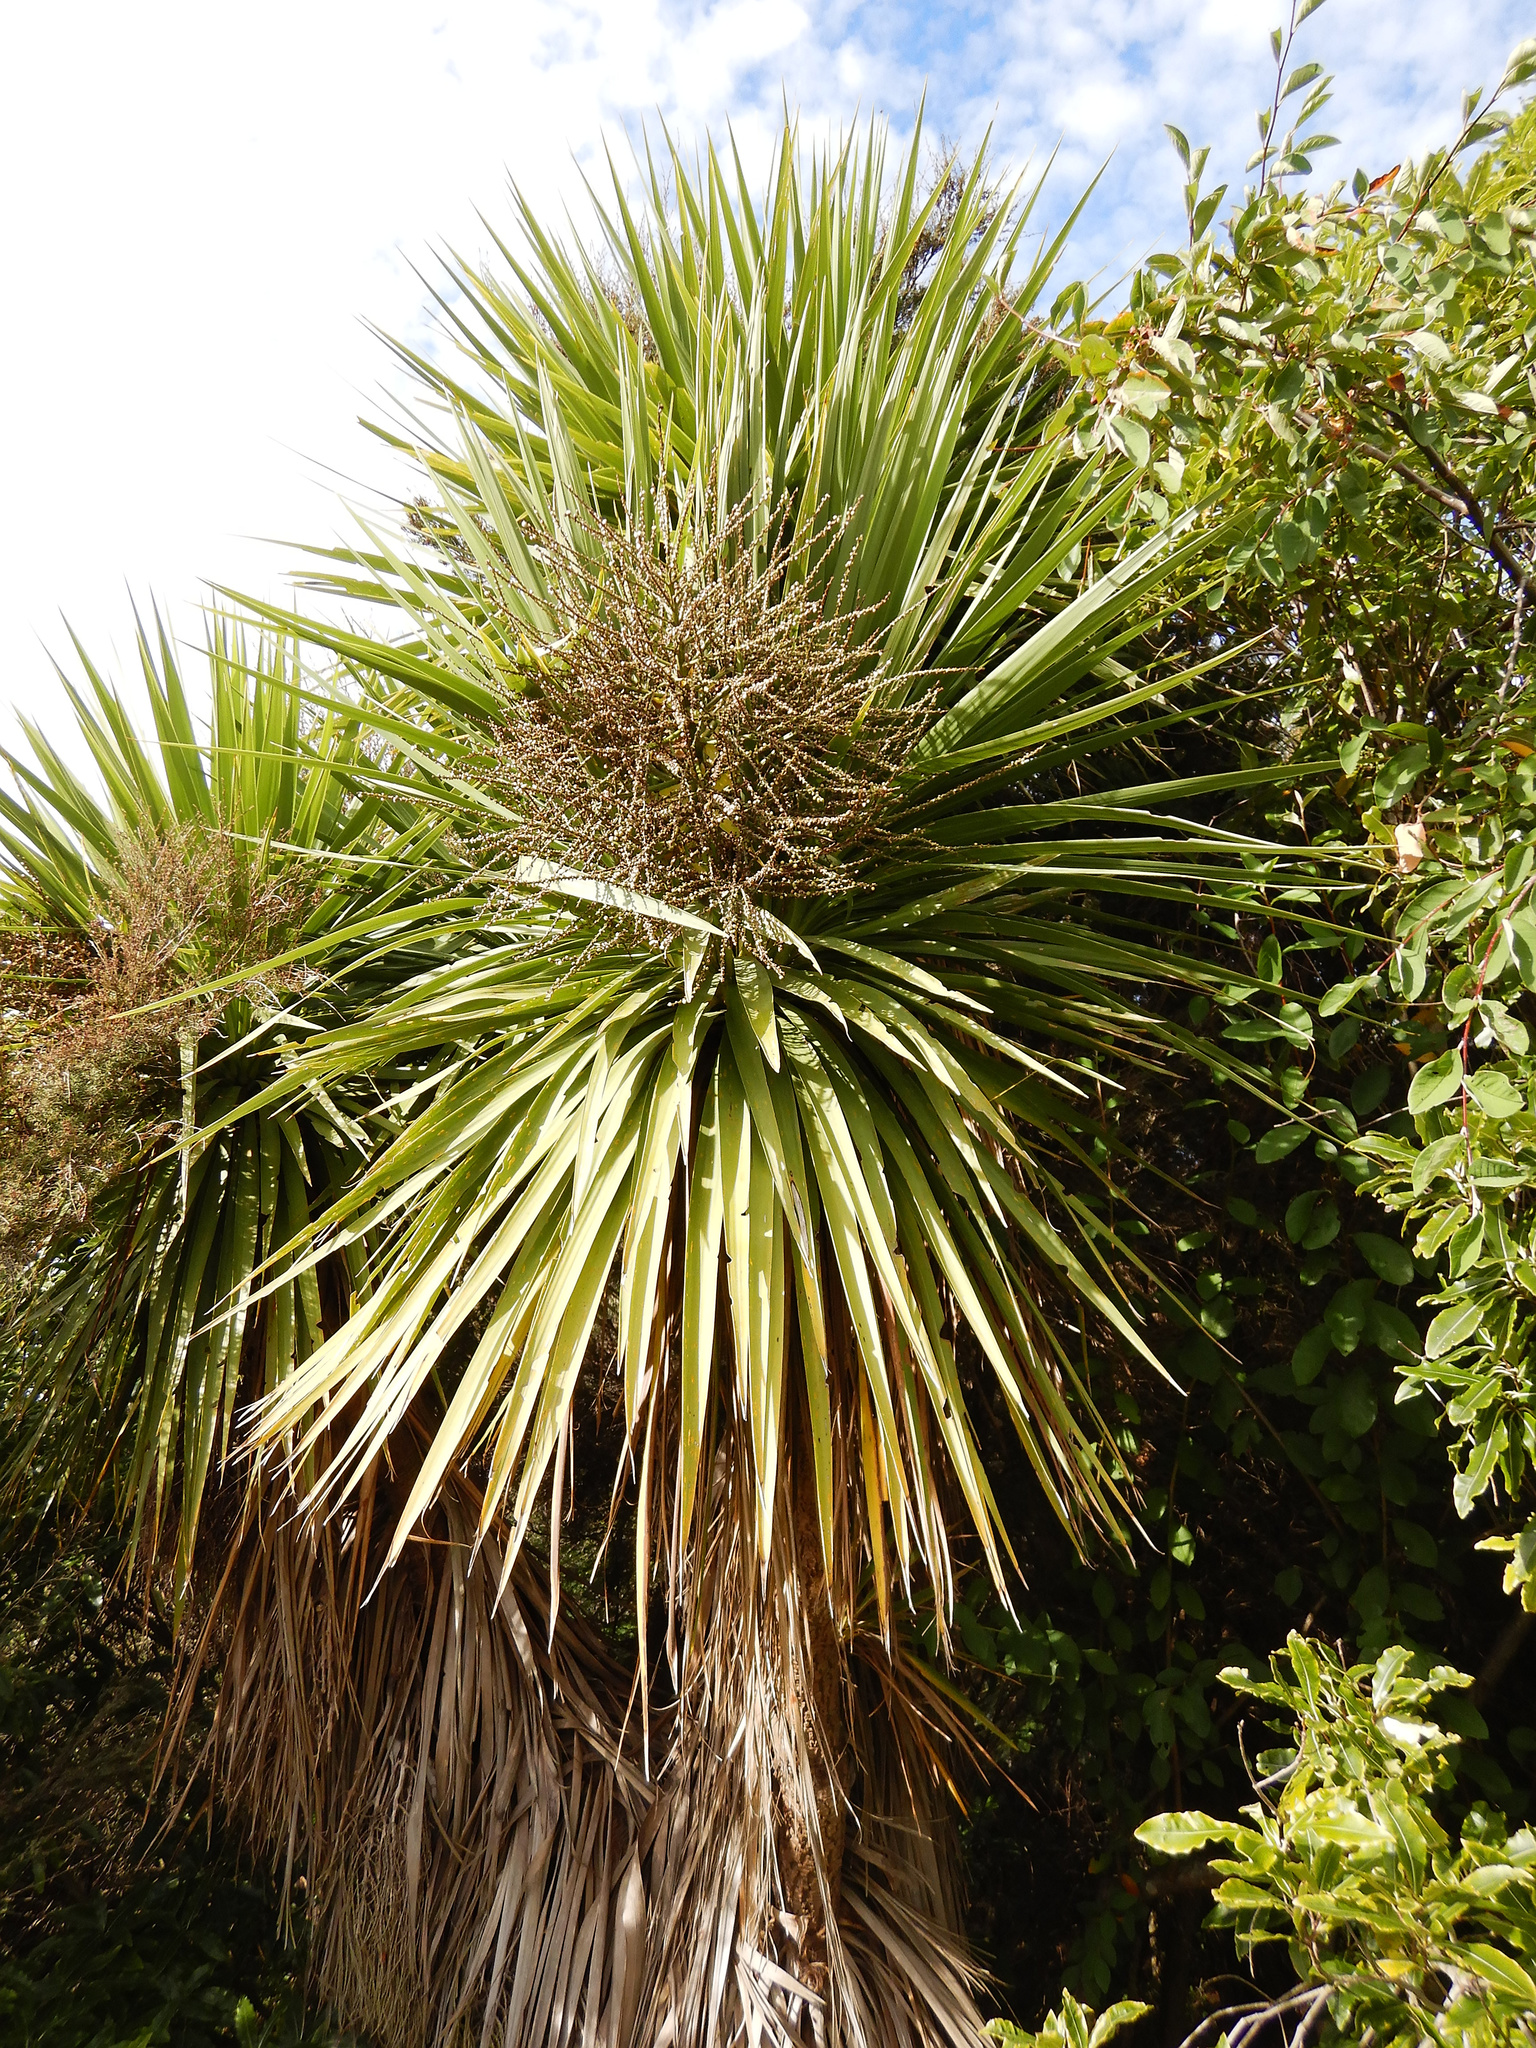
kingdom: Plantae
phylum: Tracheophyta
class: Liliopsida
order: Asparagales
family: Asparagaceae
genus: Cordyline
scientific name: Cordyline australis
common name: Cabbage-palm
